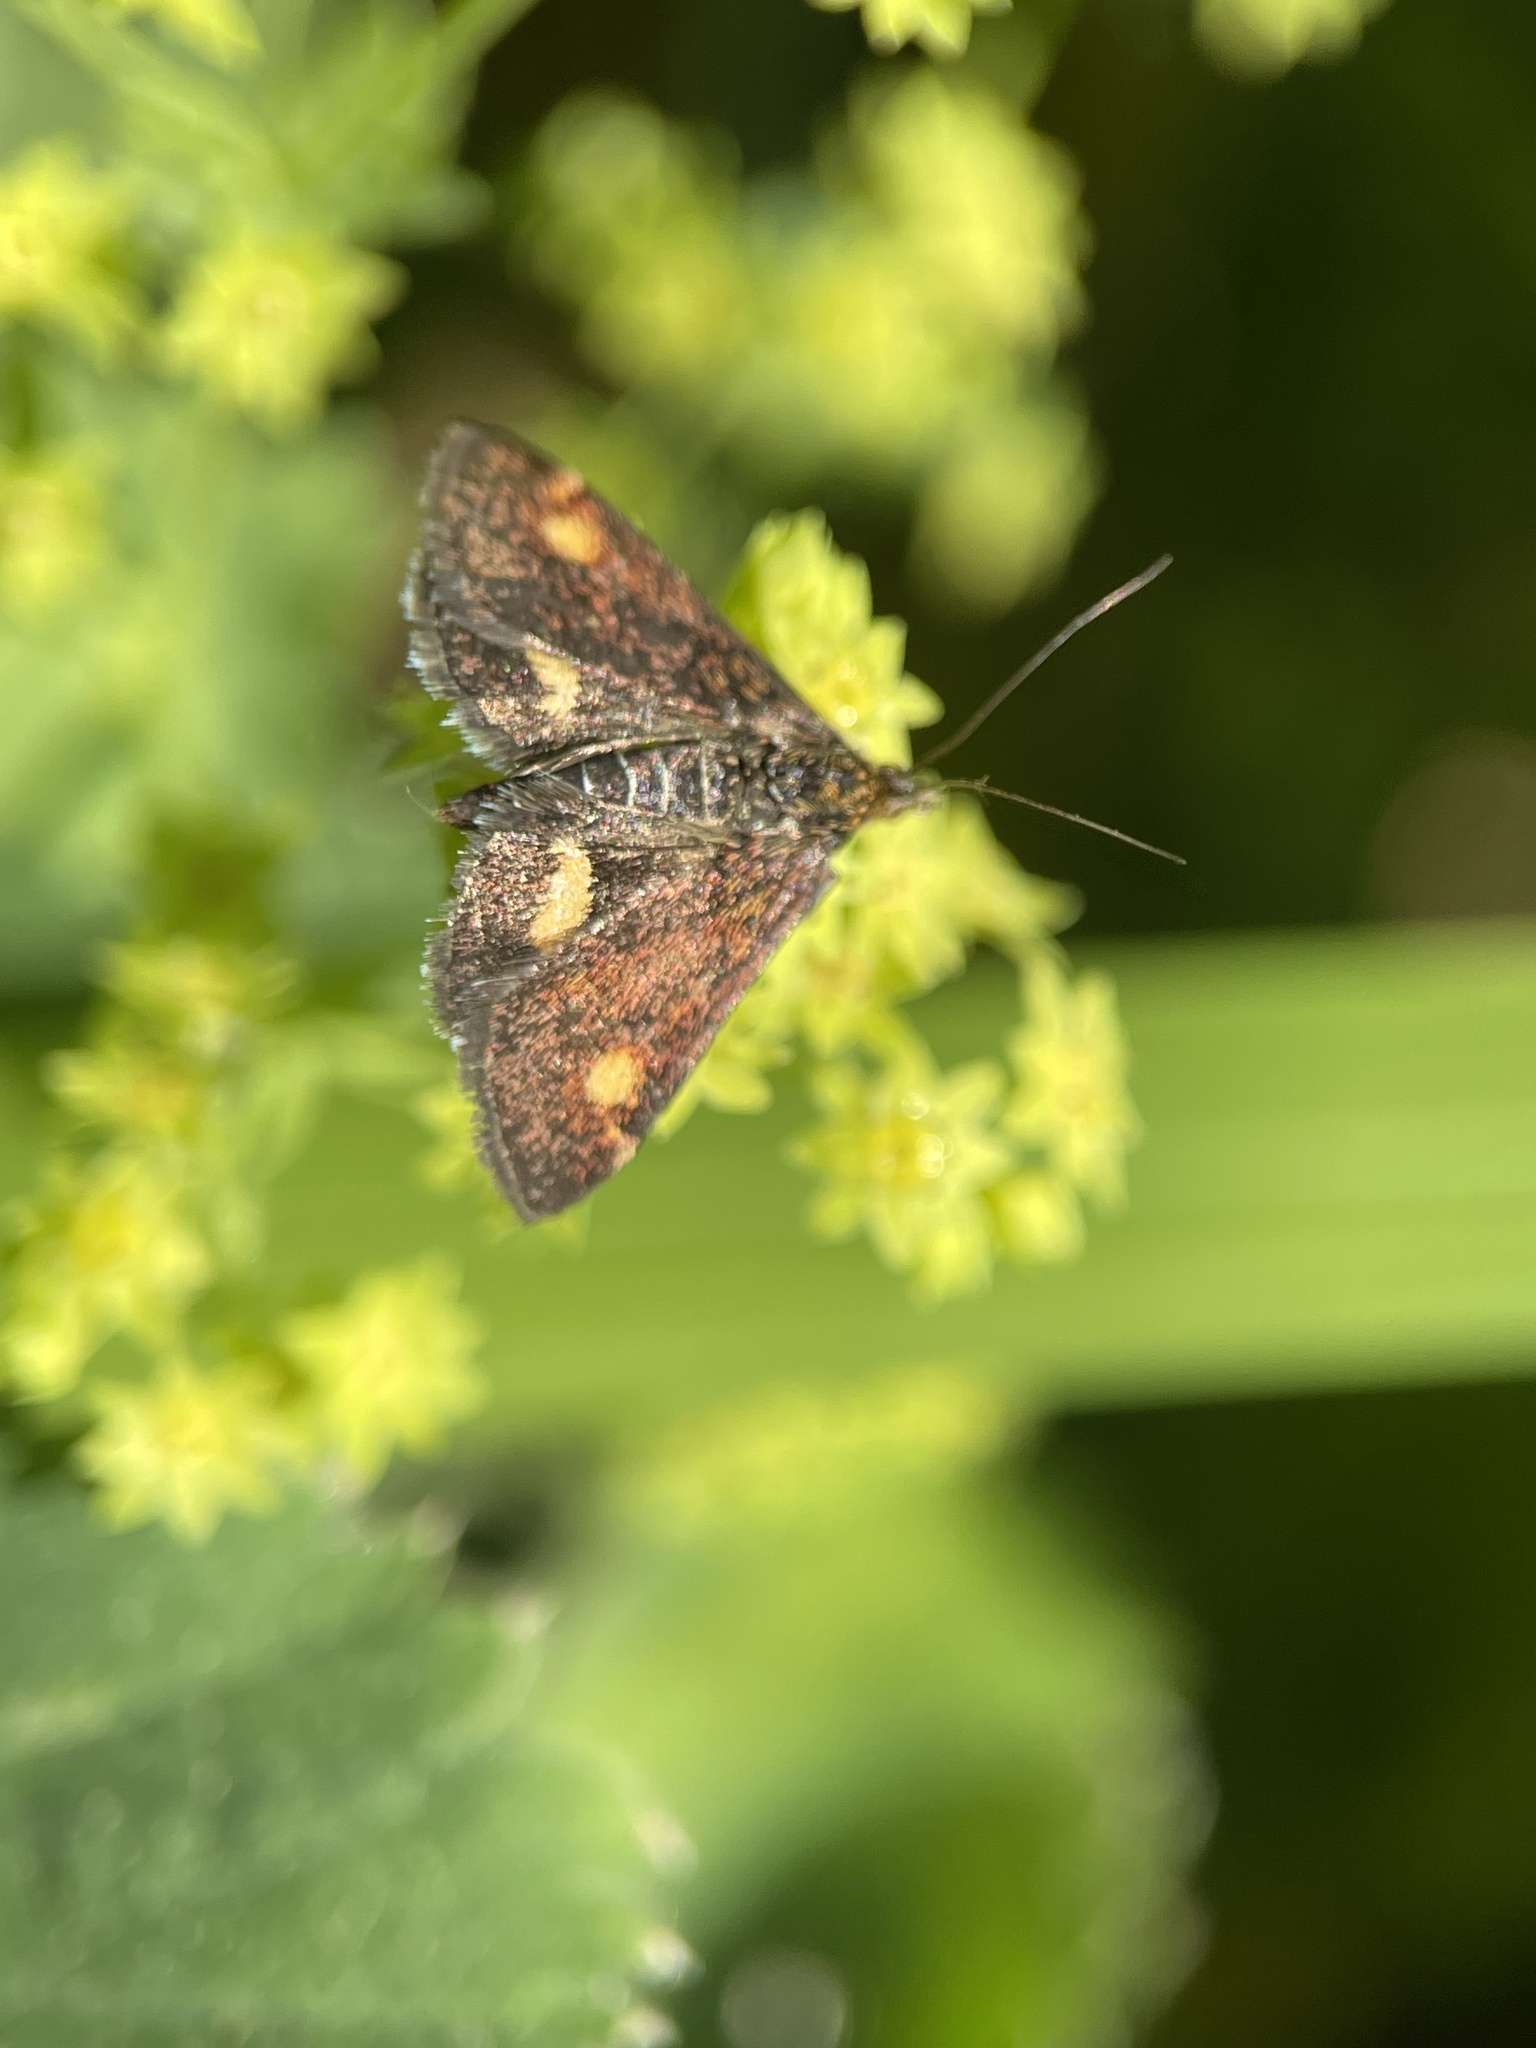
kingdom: Animalia
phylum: Arthropoda
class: Insecta
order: Lepidoptera
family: Crambidae
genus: Pyrausta
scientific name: Pyrausta aurata
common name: Small purple & gold
